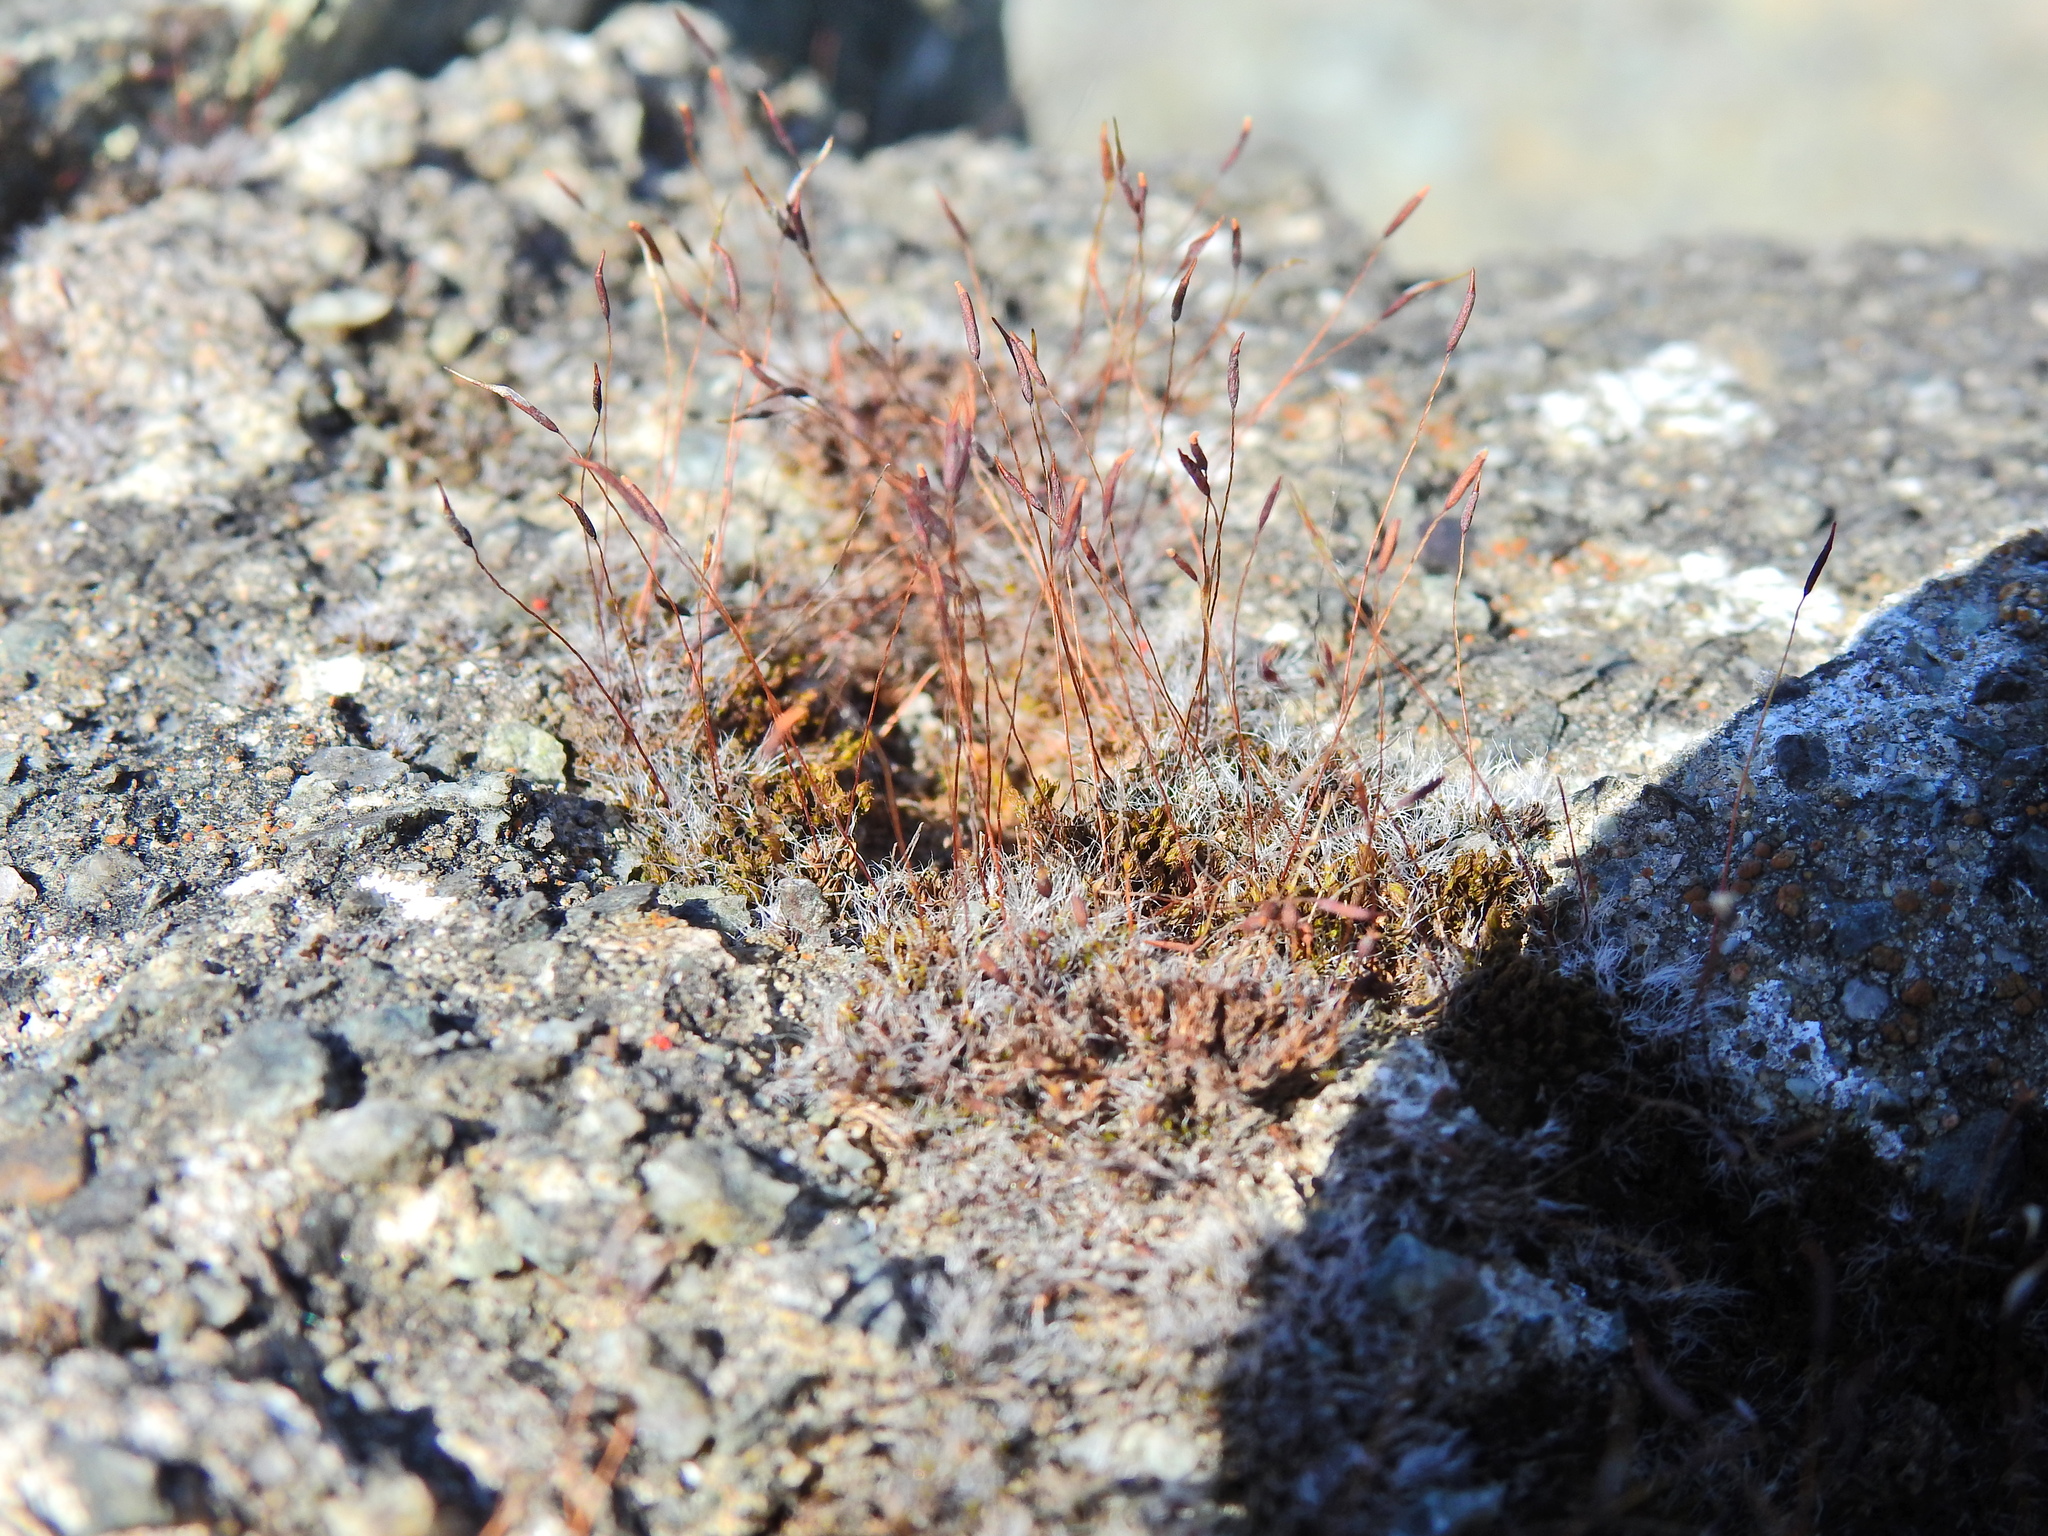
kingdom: Plantae
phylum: Bryophyta
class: Bryopsida
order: Pottiales
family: Pottiaceae
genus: Tortula
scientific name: Tortula muralis
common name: Wall screw-moss
